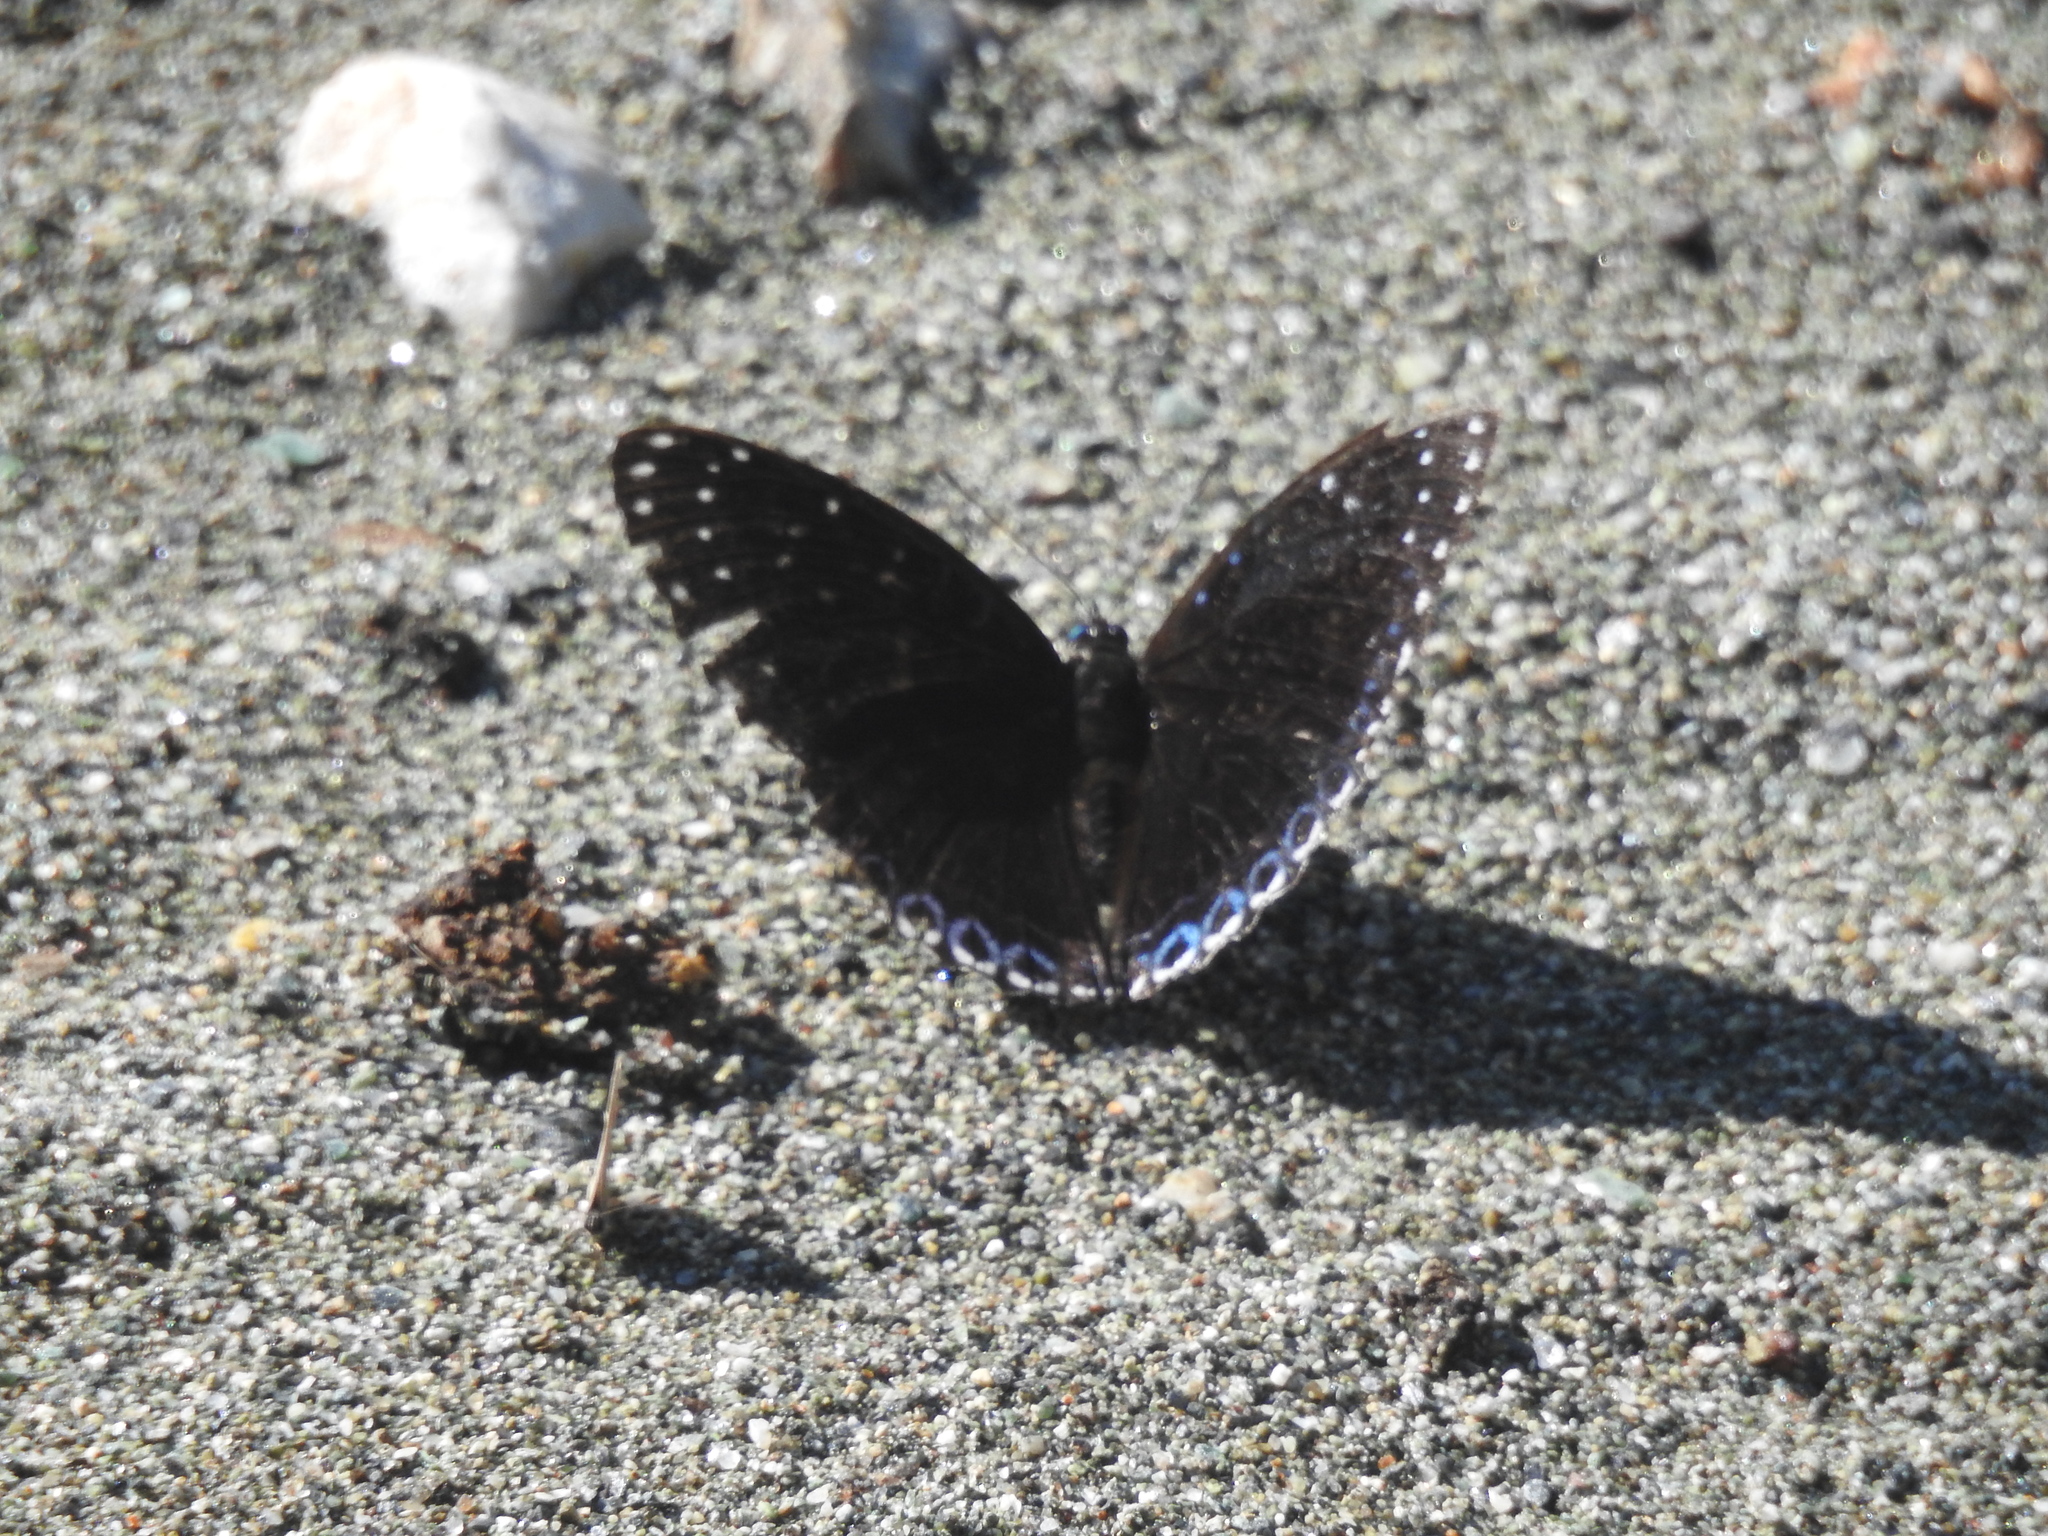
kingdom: Animalia
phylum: Arthropoda
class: Insecta
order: Lepidoptera
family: Nymphalidae
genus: Stibochiona
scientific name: Stibochiona nicea
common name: Popinjay
